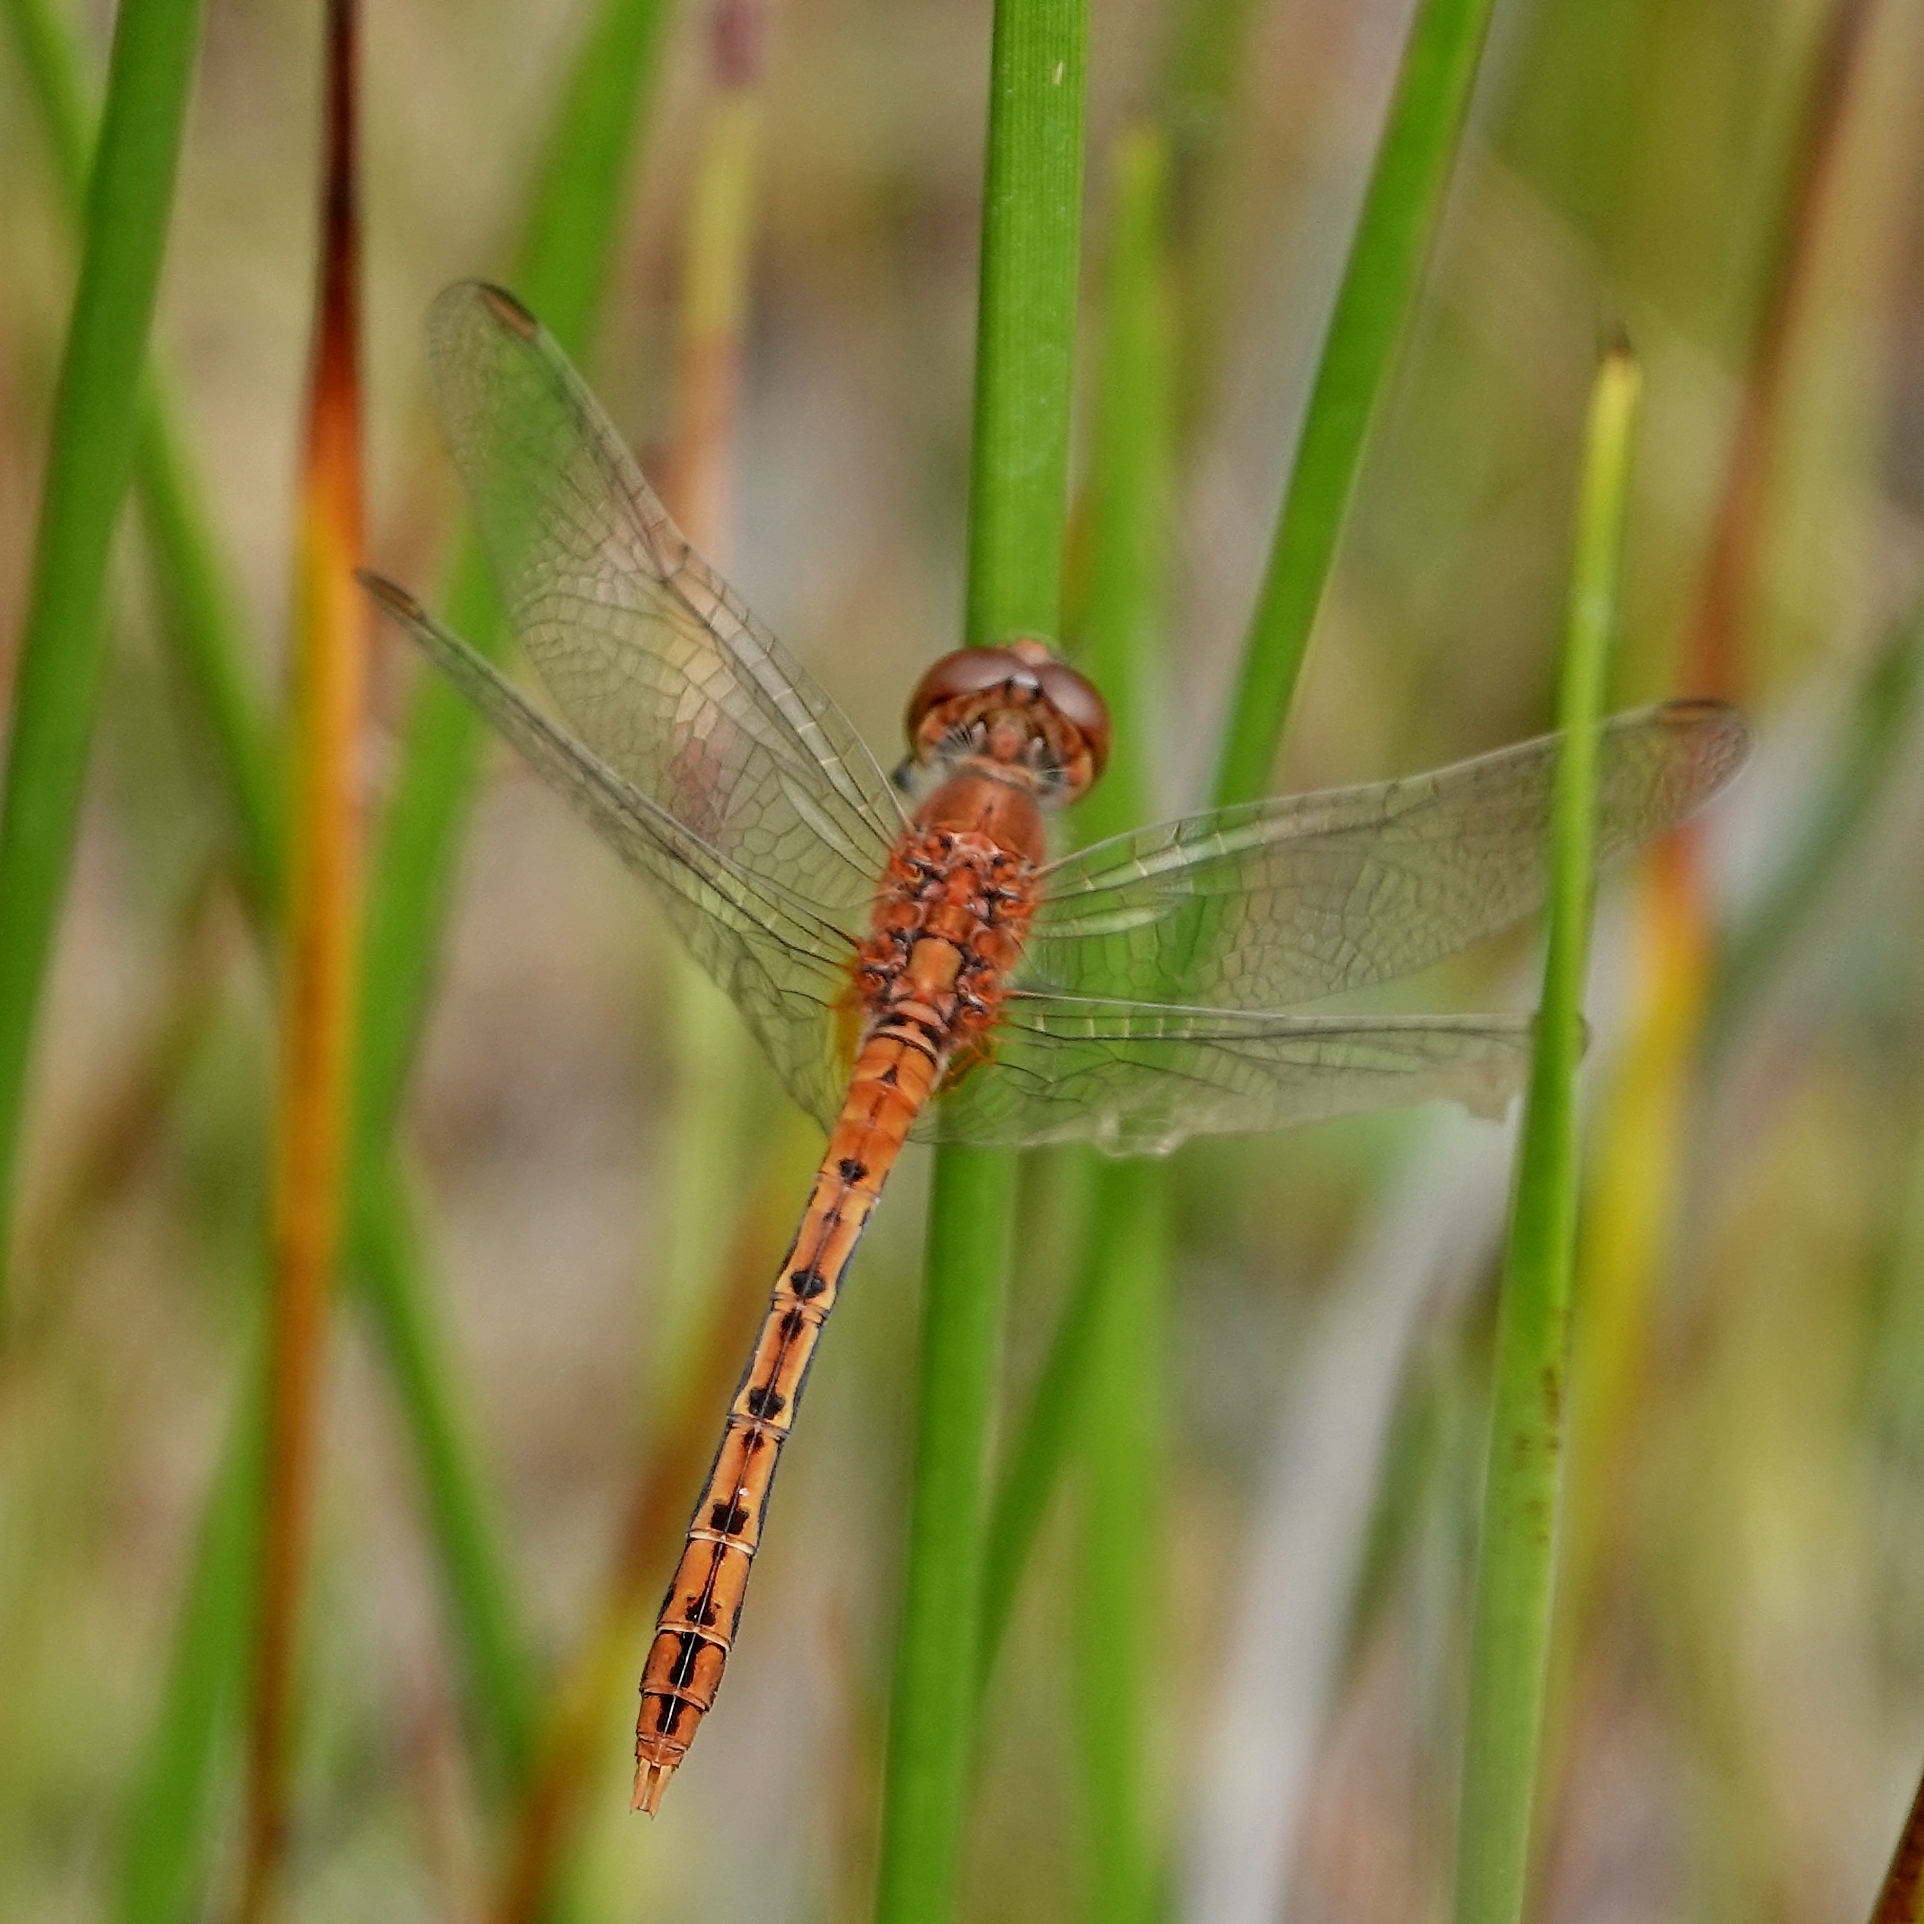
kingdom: Animalia
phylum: Arthropoda
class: Insecta
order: Odonata
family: Libellulidae
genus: Diplacodes
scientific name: Diplacodes bipunctata
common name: Red percher dragonfly
